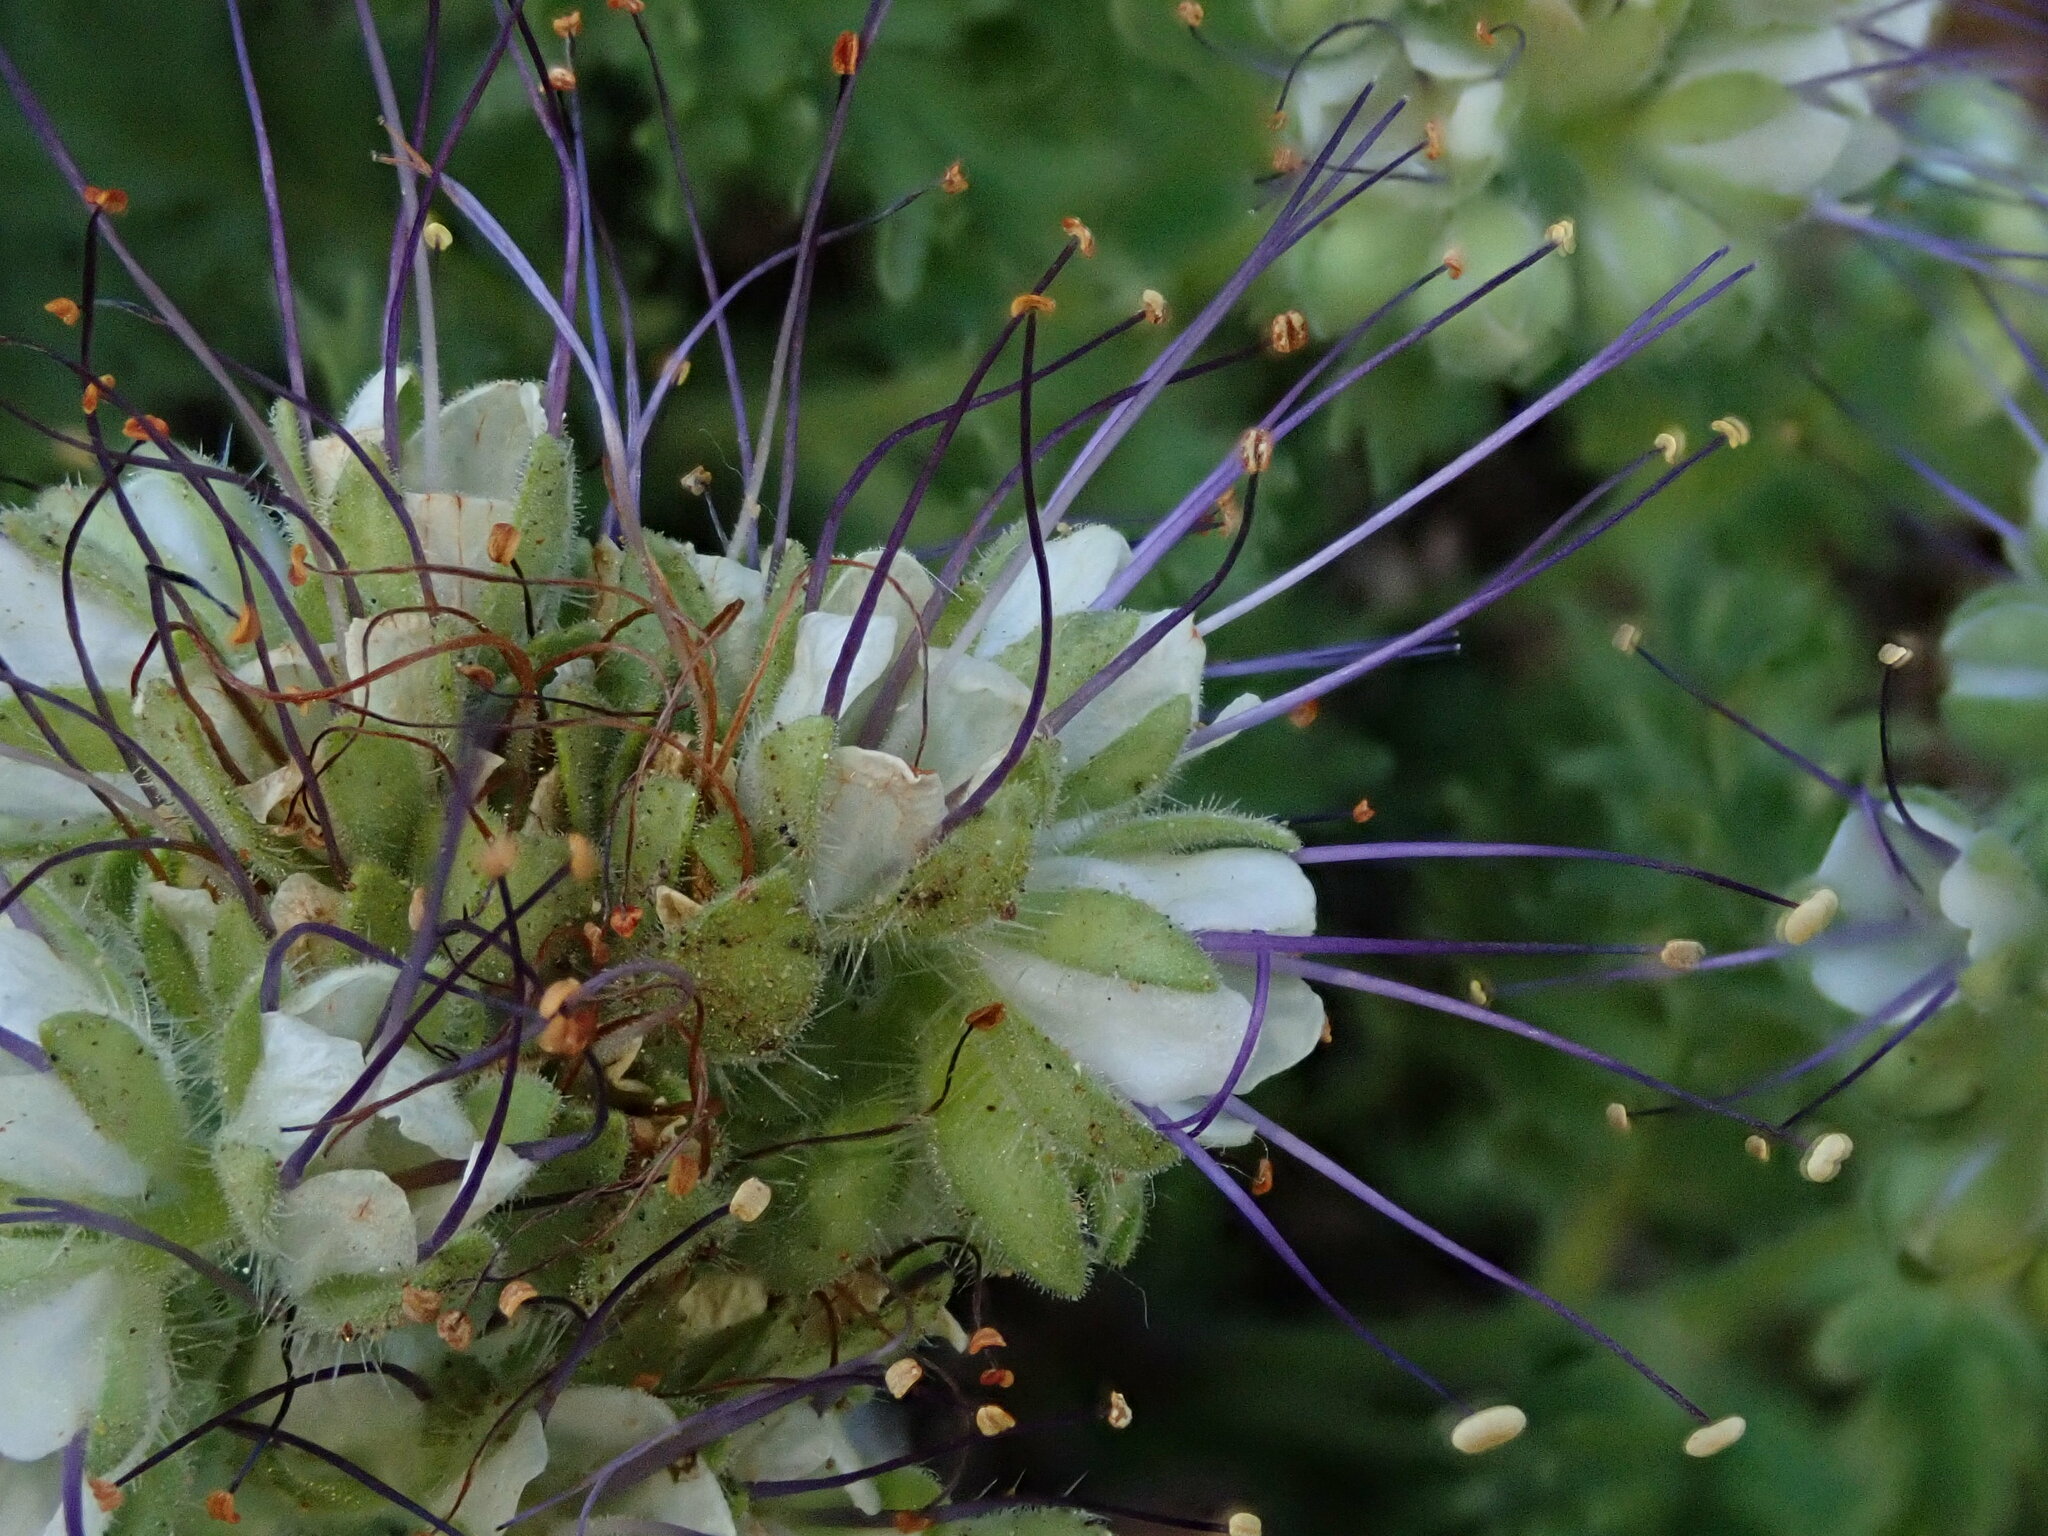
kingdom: Plantae
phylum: Tracheophyta
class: Magnoliopsida
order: Boraginales
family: Hydrophyllaceae
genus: Phacelia
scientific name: Phacelia lenta
